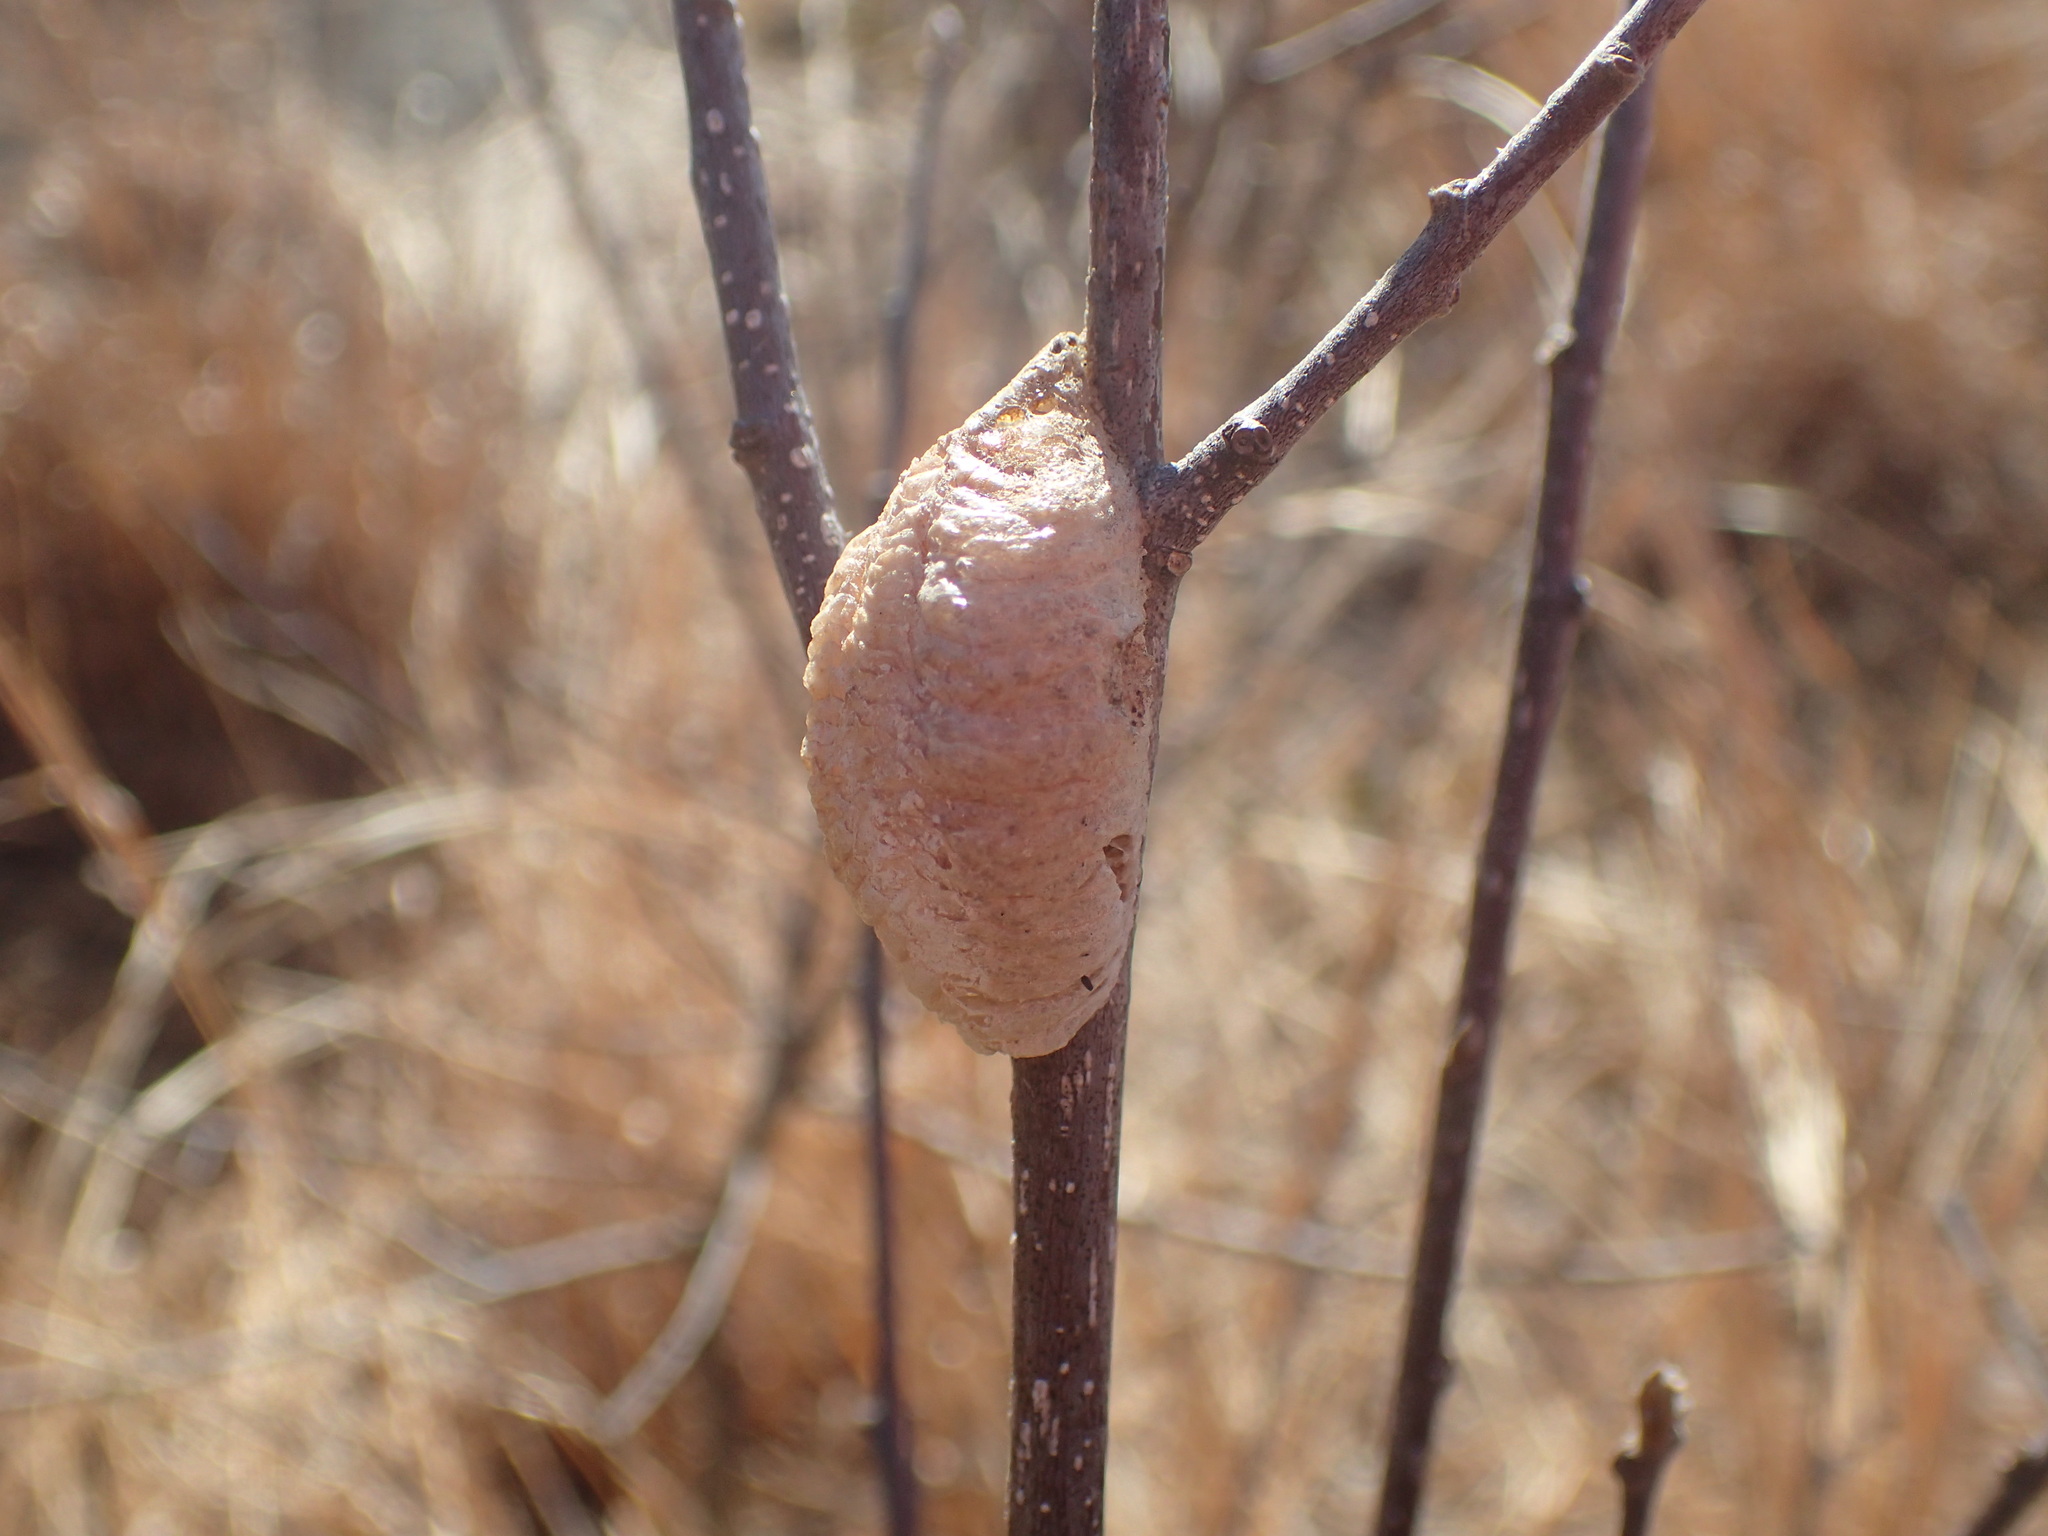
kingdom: Animalia
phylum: Arthropoda
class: Insecta
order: Mantodea
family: Mantidae
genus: Mantis
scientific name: Mantis religiosa
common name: Praying mantis
